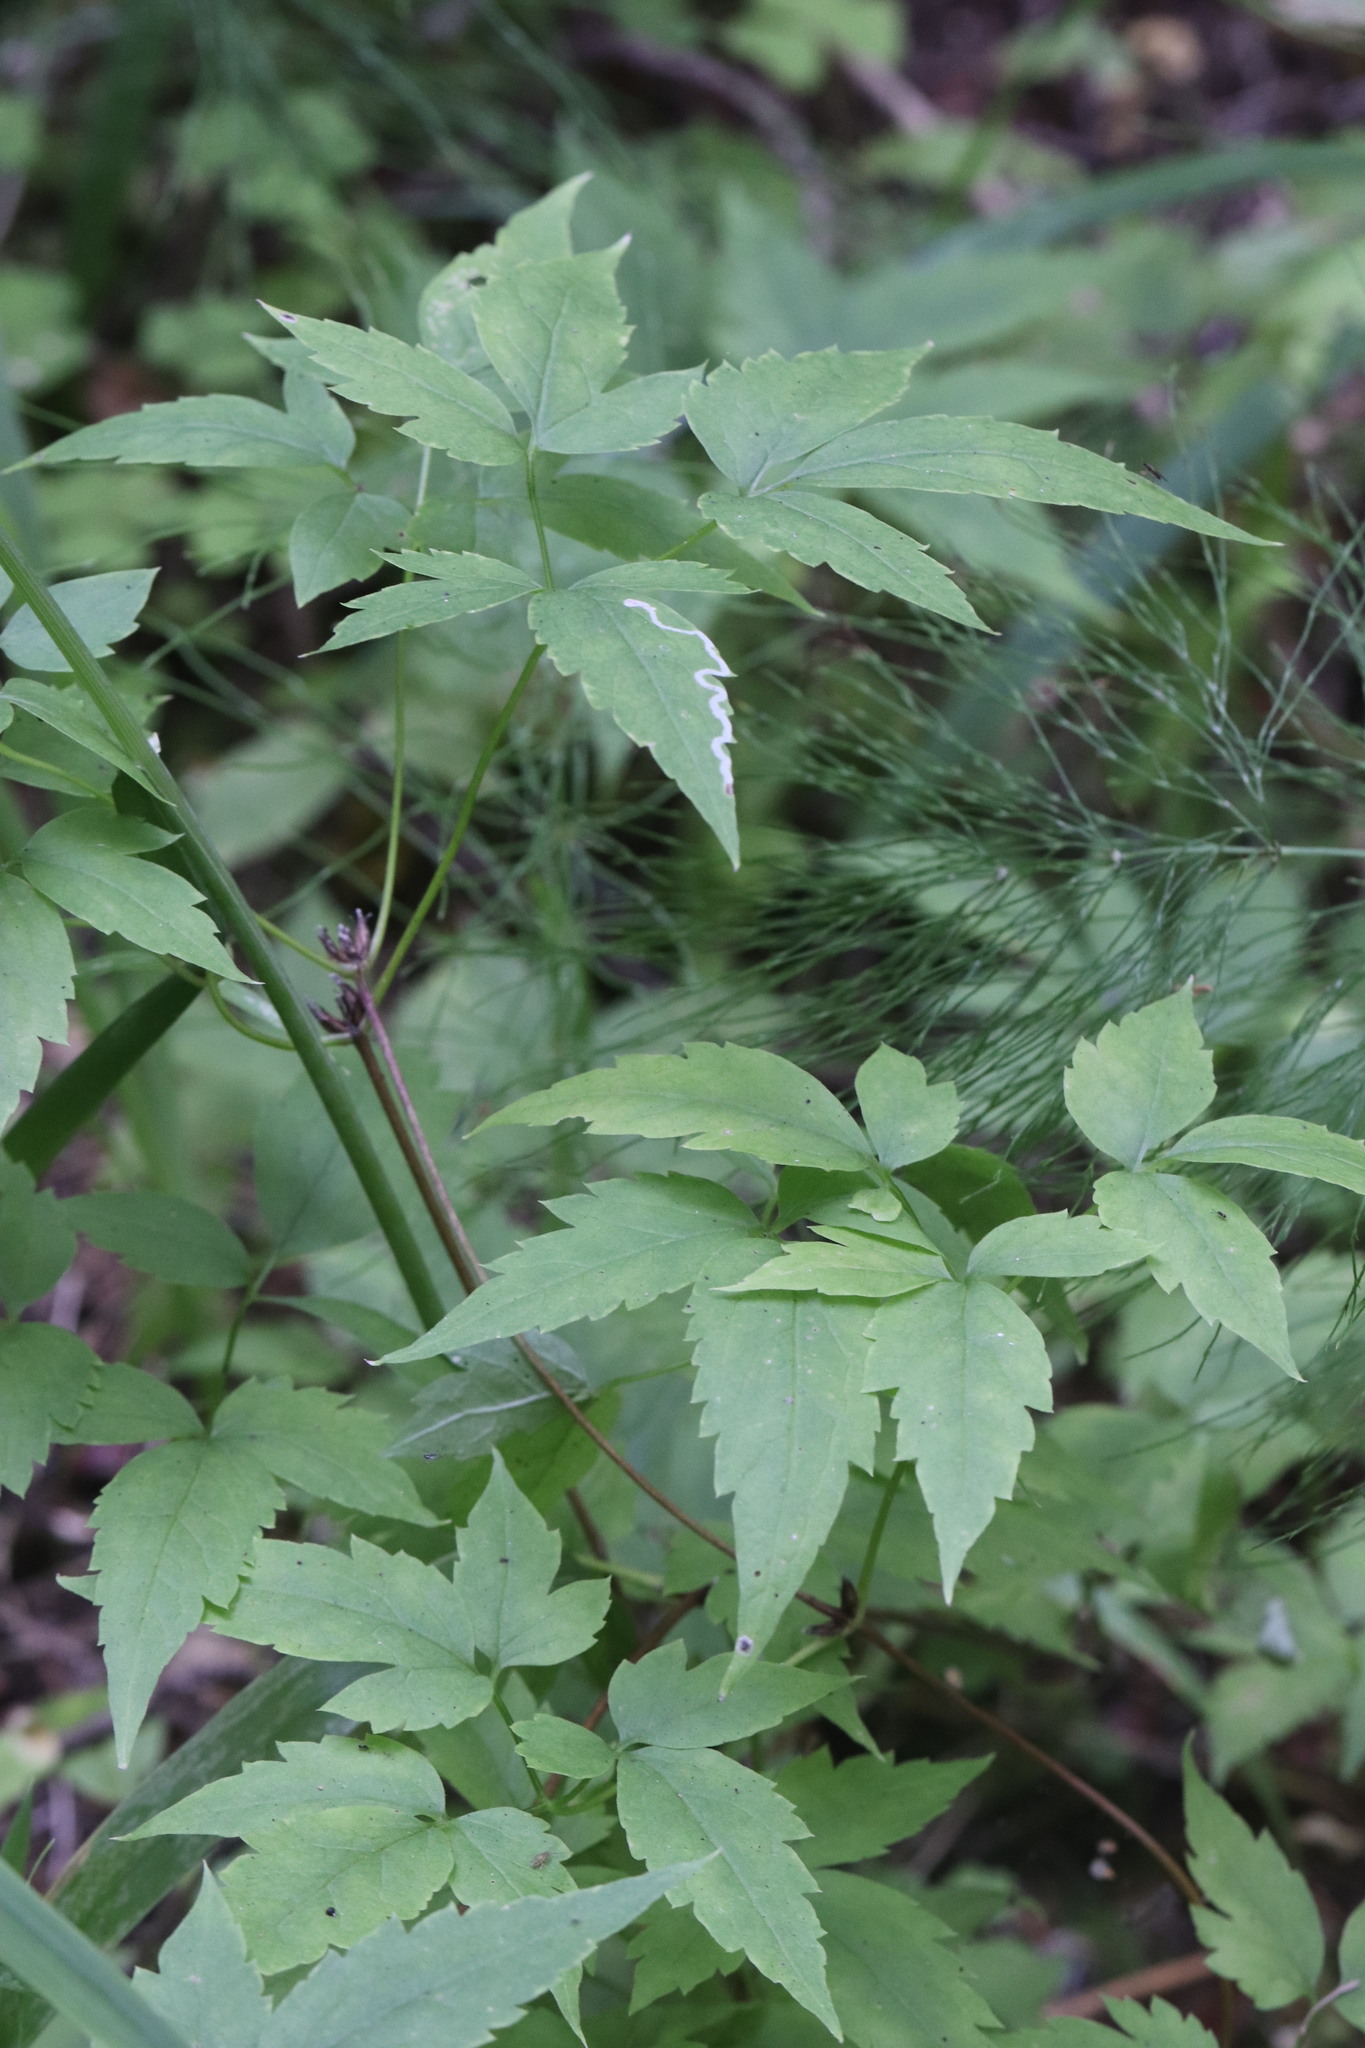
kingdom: Plantae
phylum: Tracheophyta
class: Magnoliopsida
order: Ranunculales
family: Ranunculaceae
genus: Clematis
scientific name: Clematis sibirica
